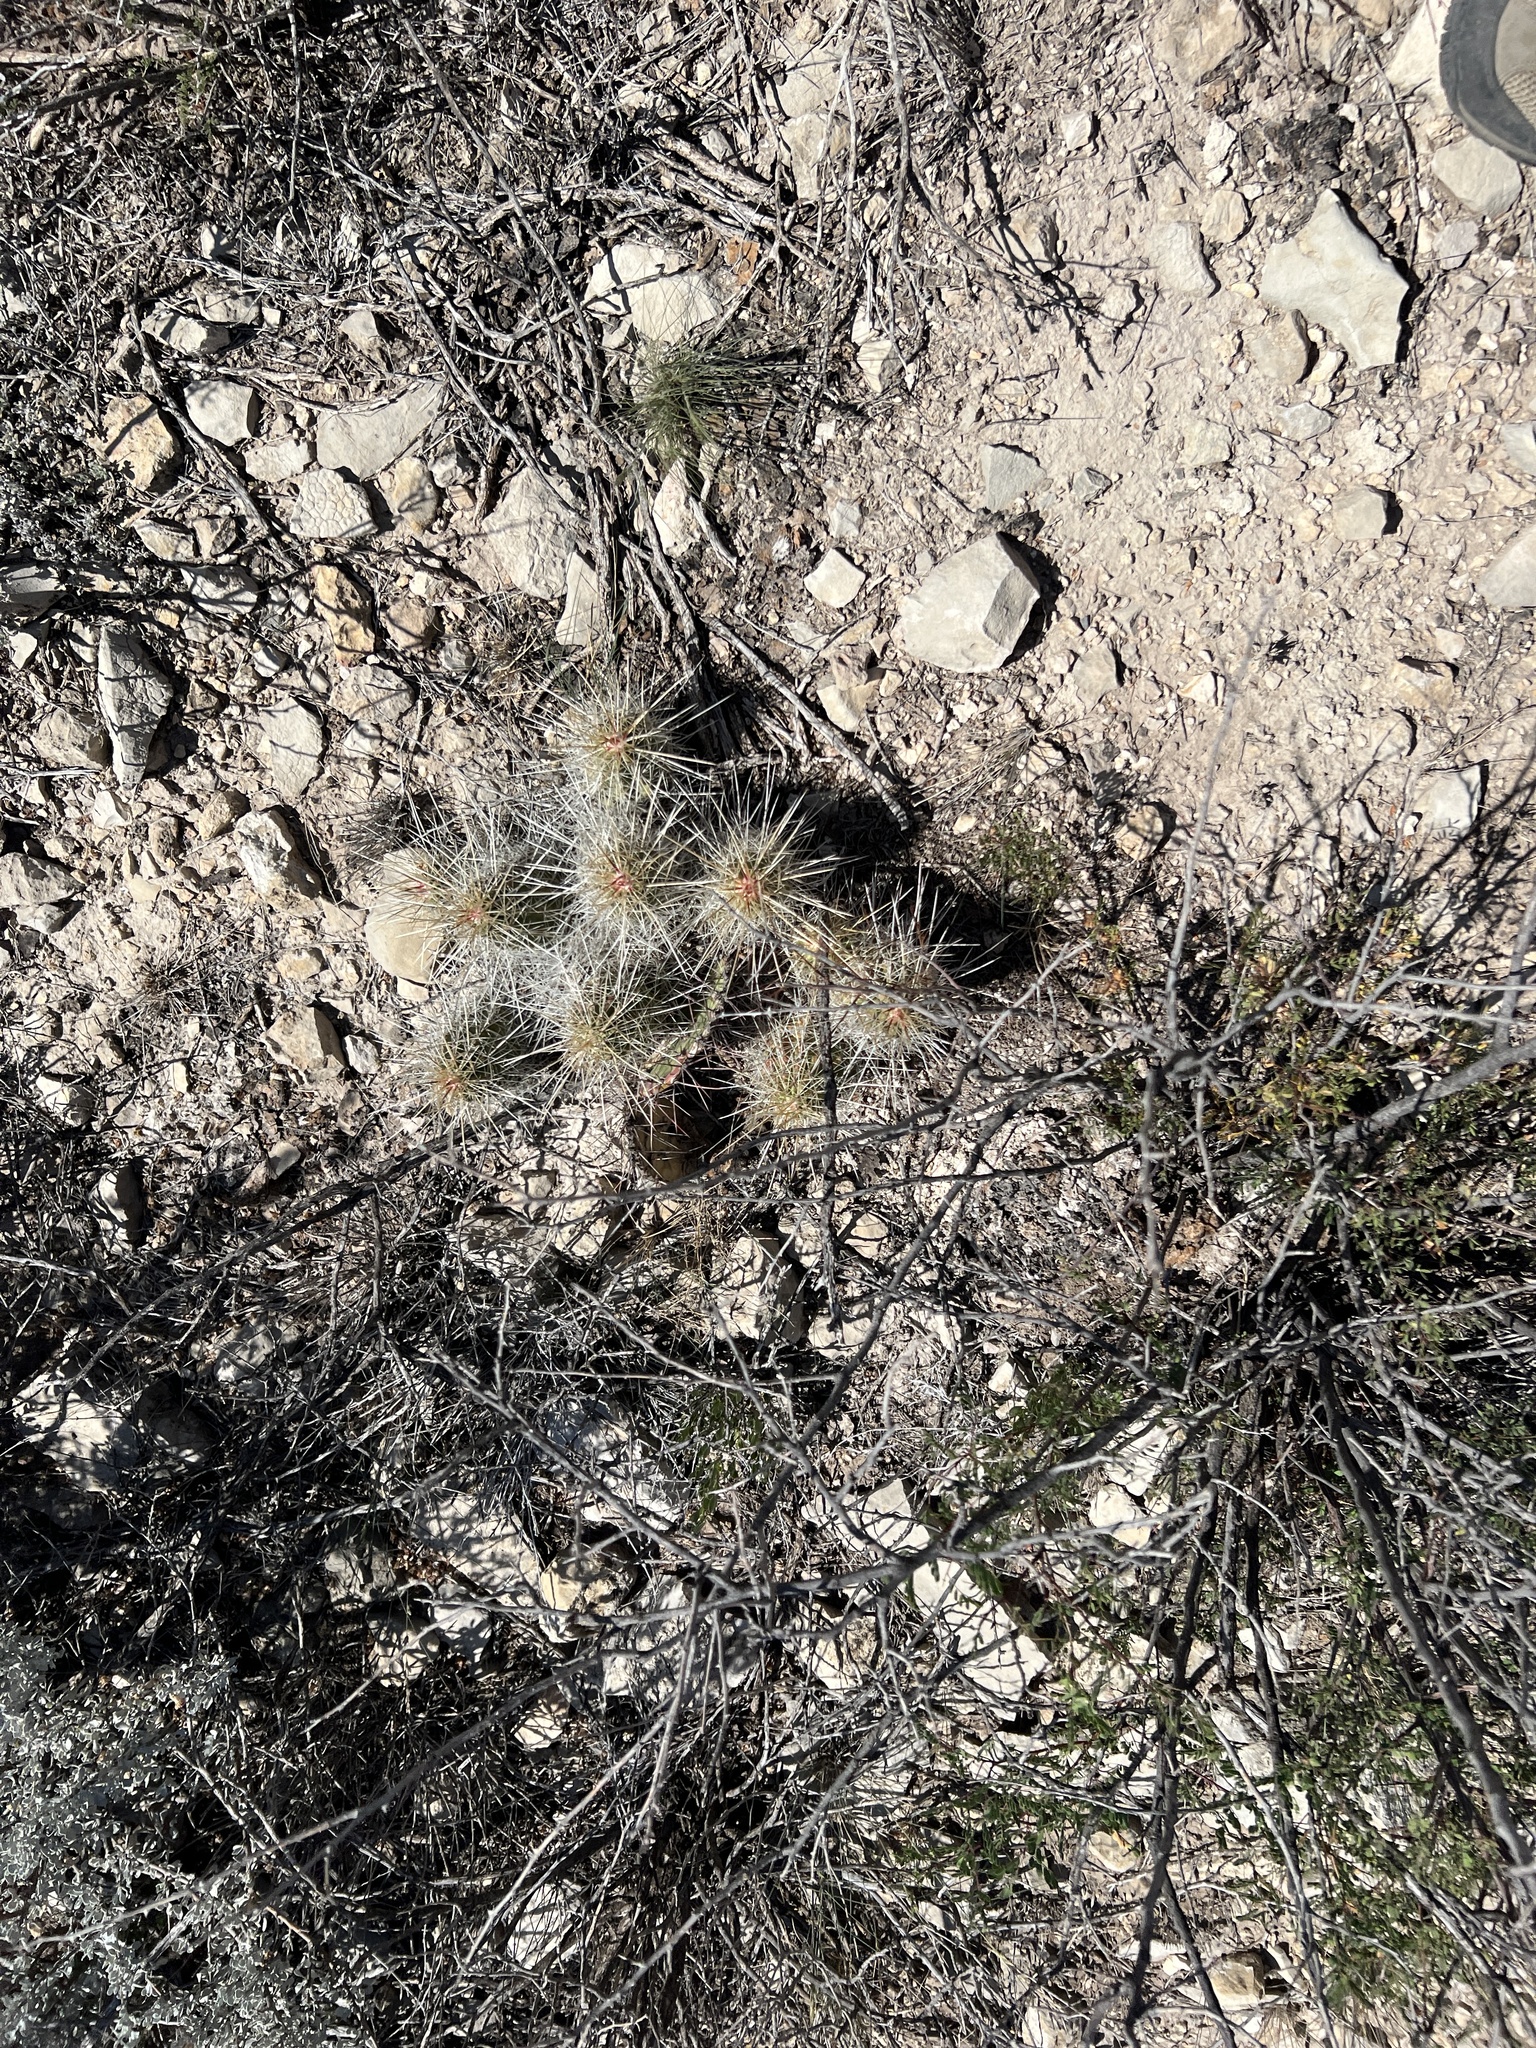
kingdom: Plantae
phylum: Tracheophyta
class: Magnoliopsida
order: Caryophyllales
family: Cactaceae
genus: Echinocereus
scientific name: Echinocereus stramineus
